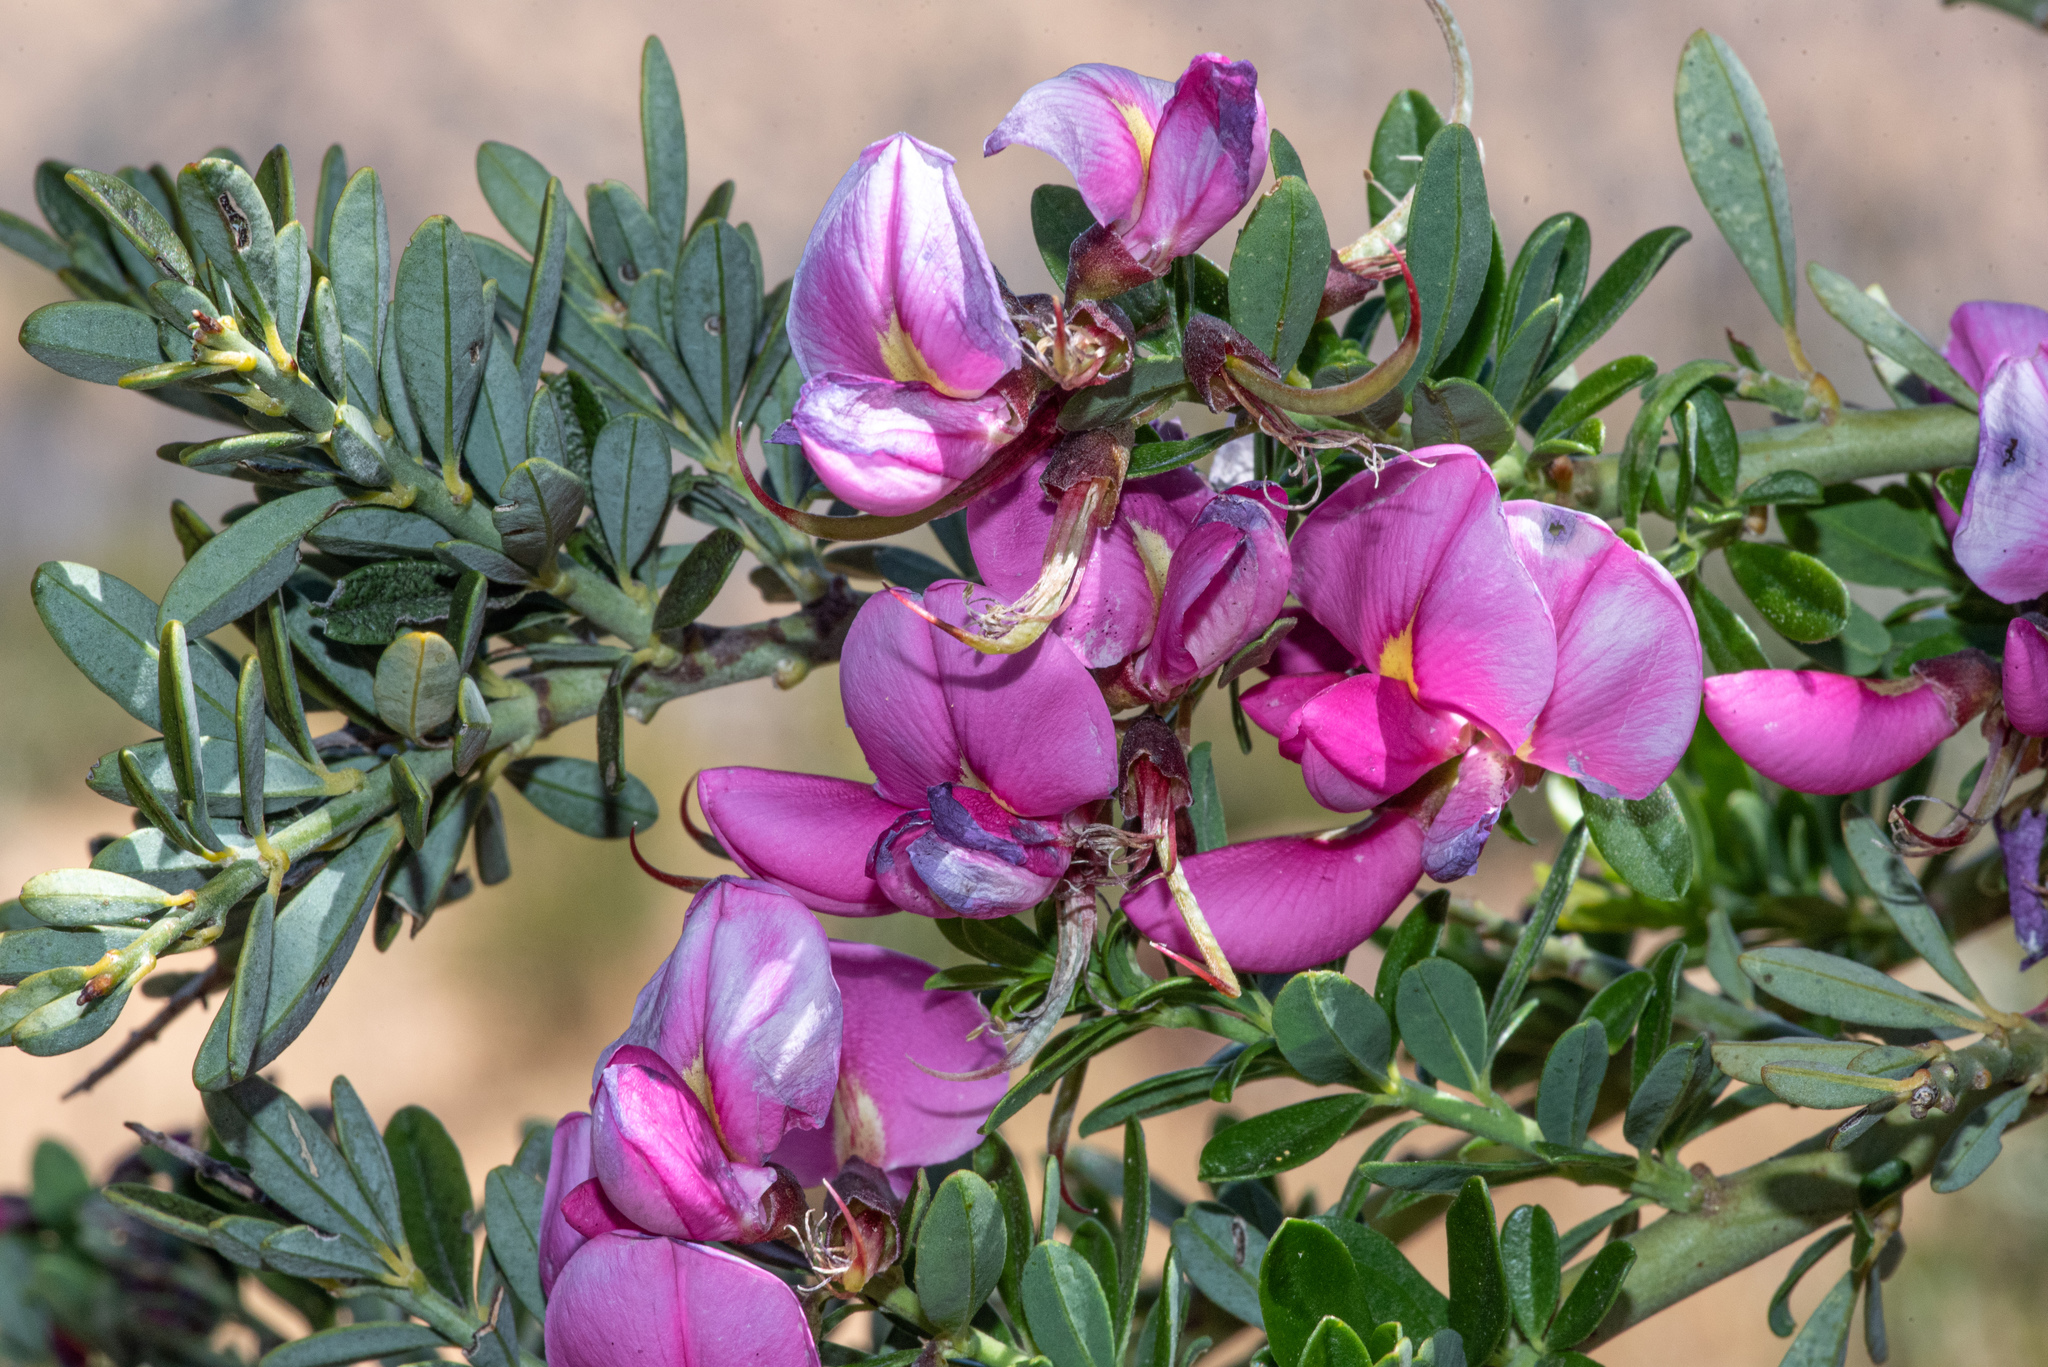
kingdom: Plantae
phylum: Tracheophyta
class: Magnoliopsida
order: Fabales
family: Fabaceae
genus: Pickeringia
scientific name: Pickeringia montana
